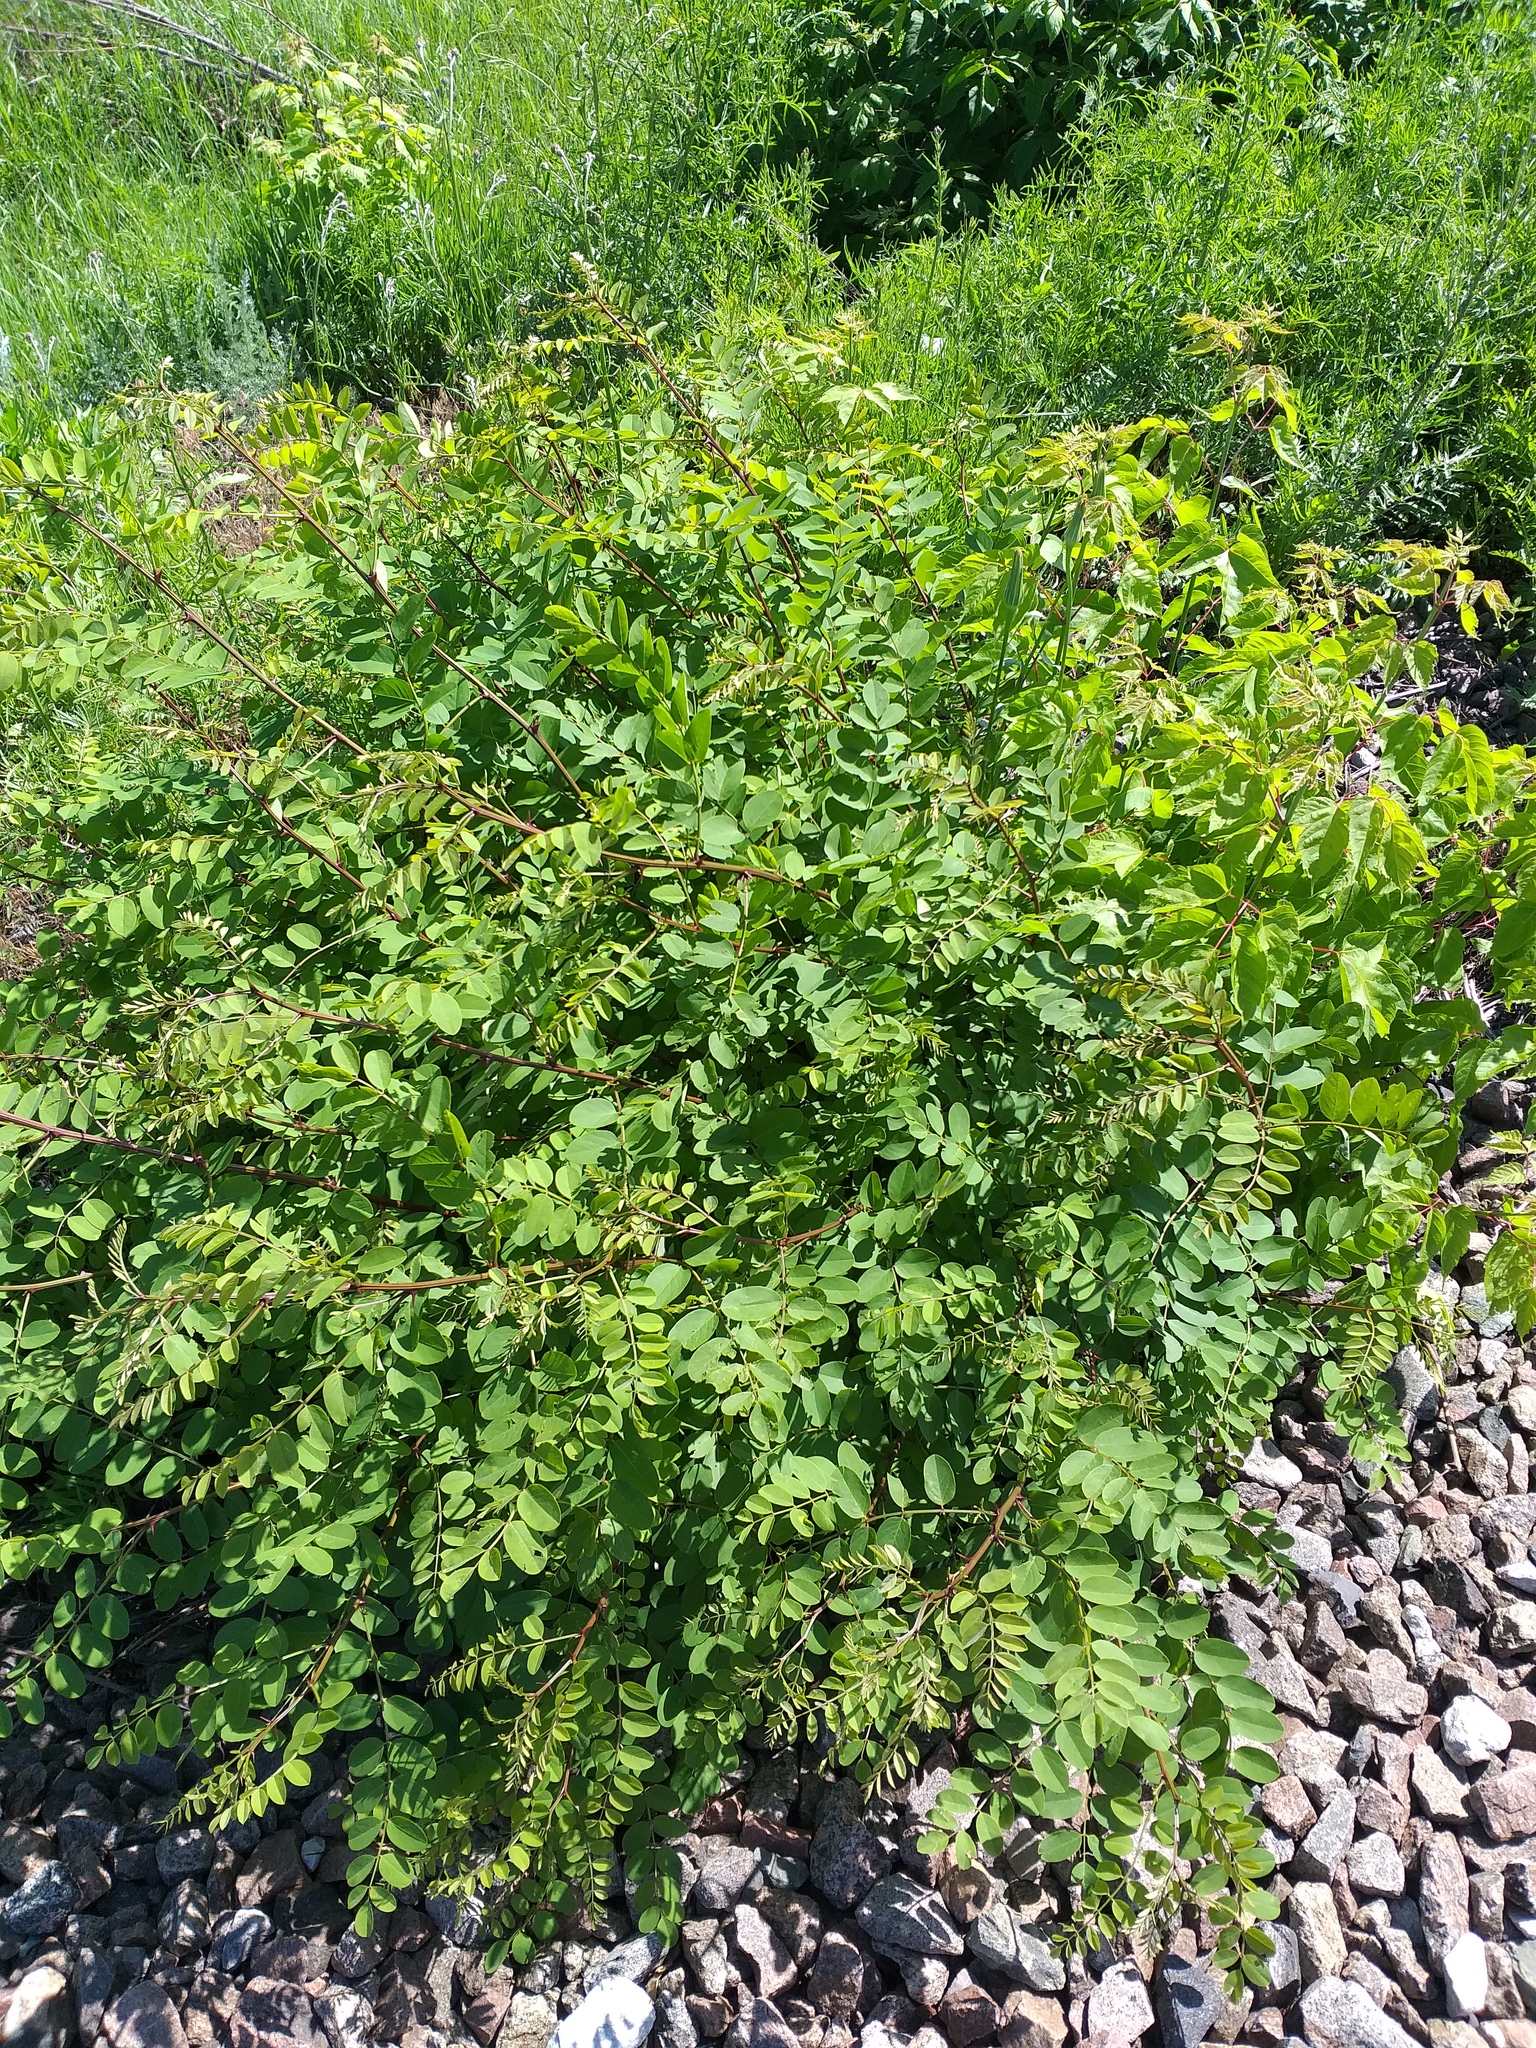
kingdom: Plantae
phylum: Tracheophyta
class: Magnoliopsida
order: Fabales
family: Fabaceae
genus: Robinia
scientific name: Robinia pseudoacacia
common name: Black locust
